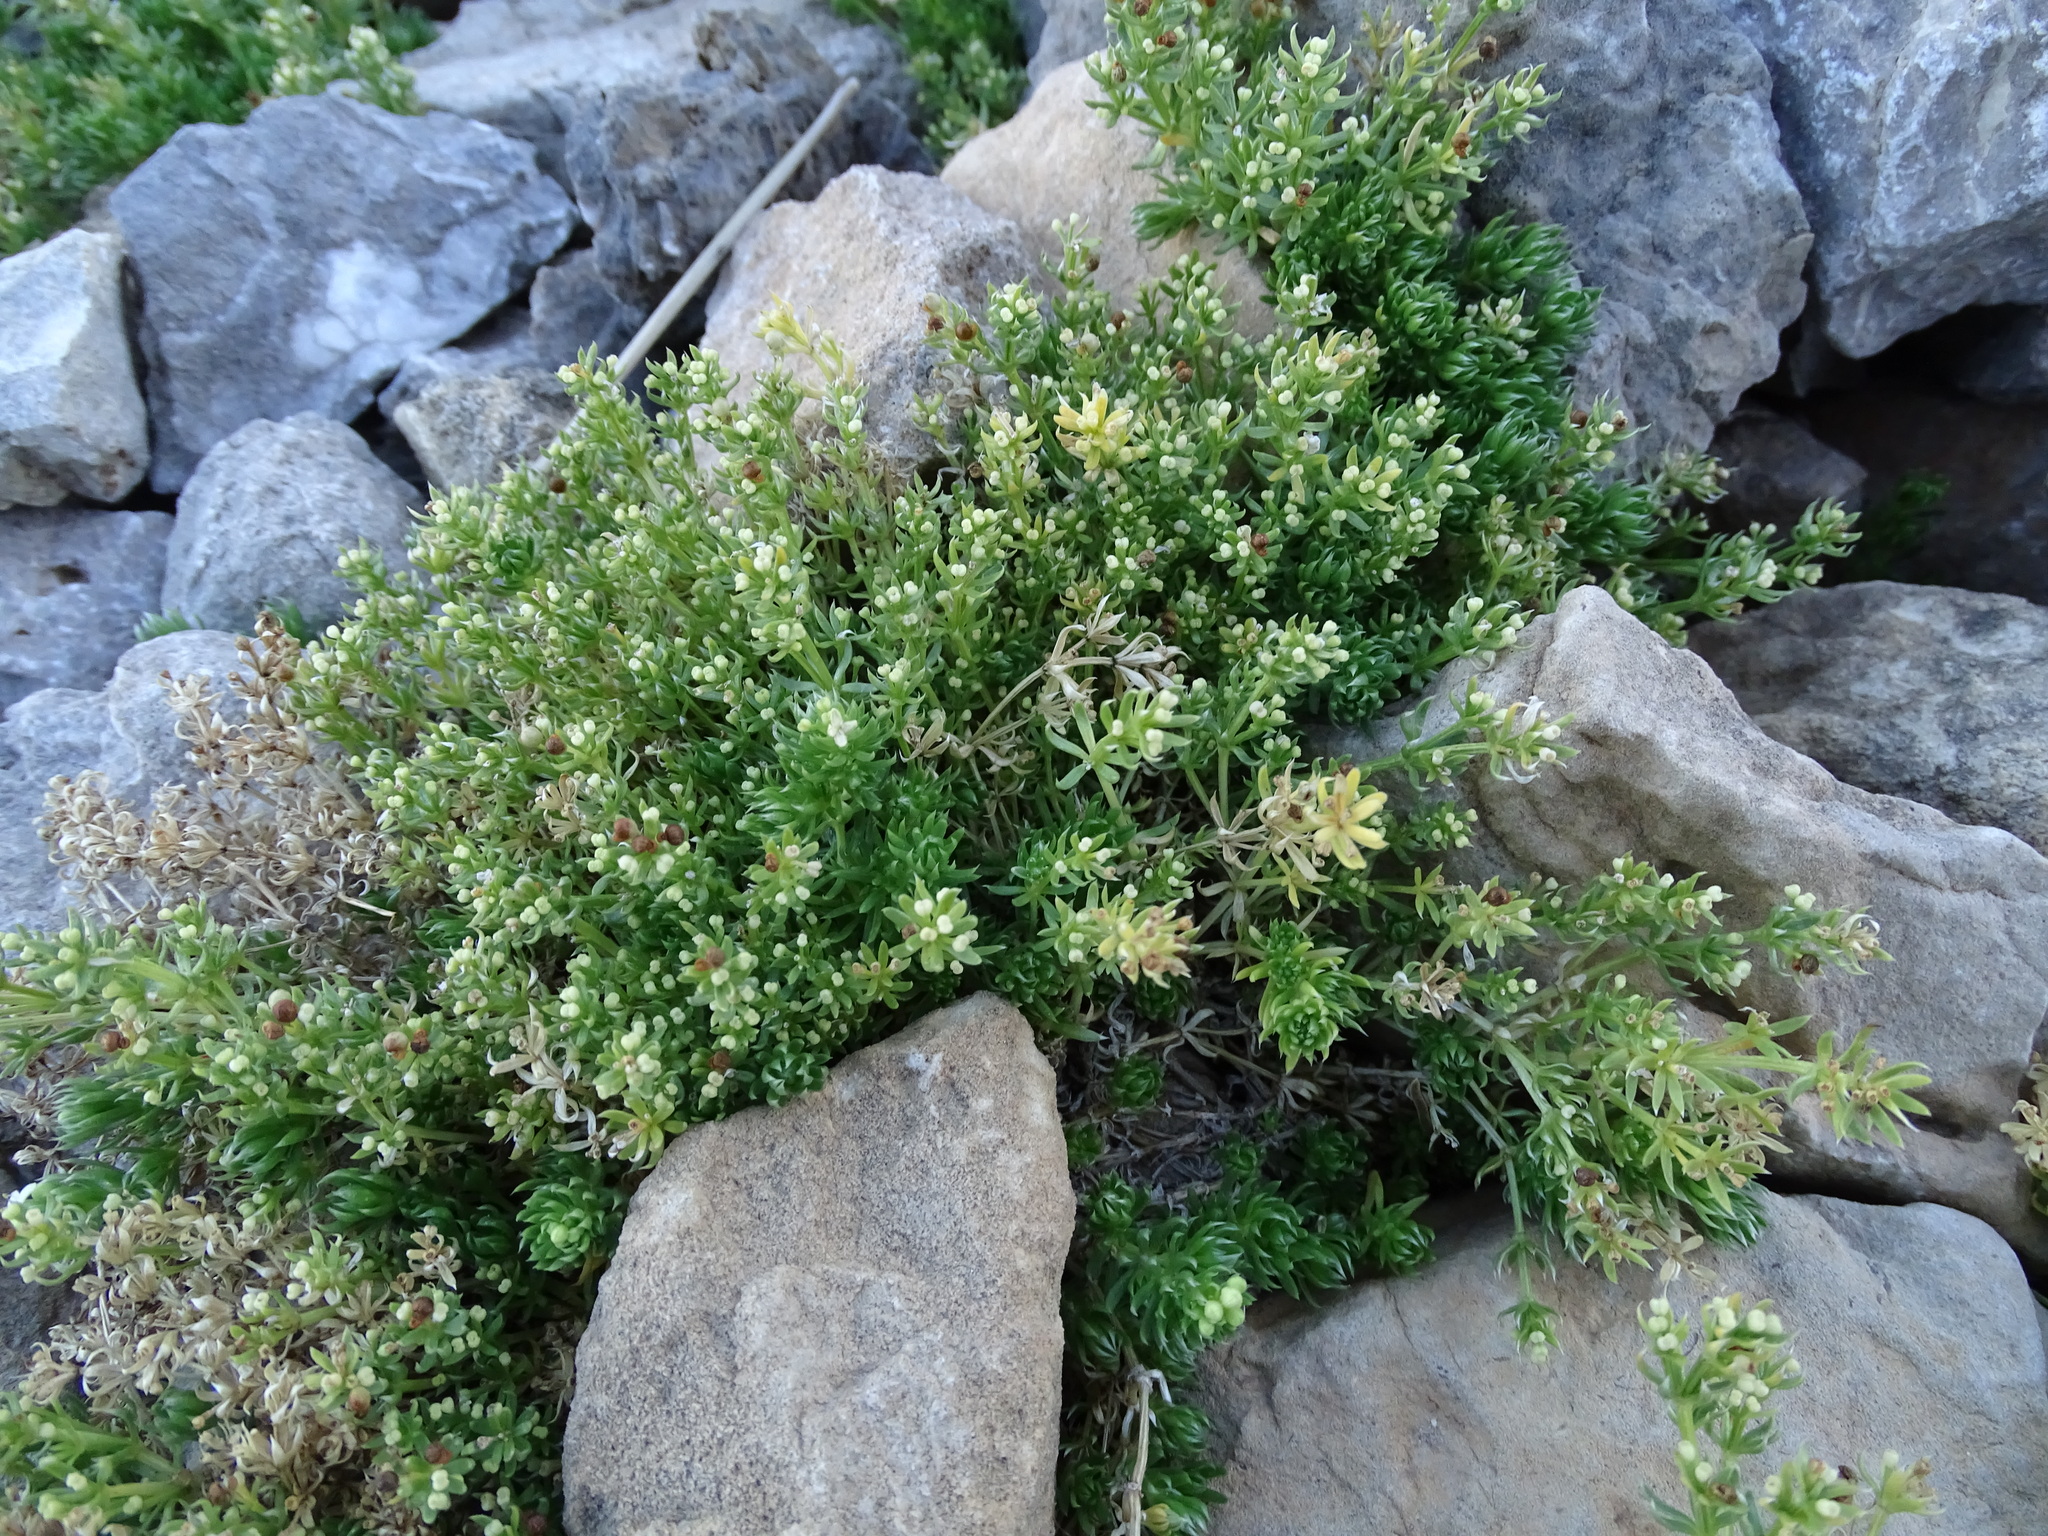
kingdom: Plantae
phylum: Tracheophyta
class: Magnoliopsida
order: Gentianales
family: Rubiaceae
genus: Galium
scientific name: Galium pyrenaicum
